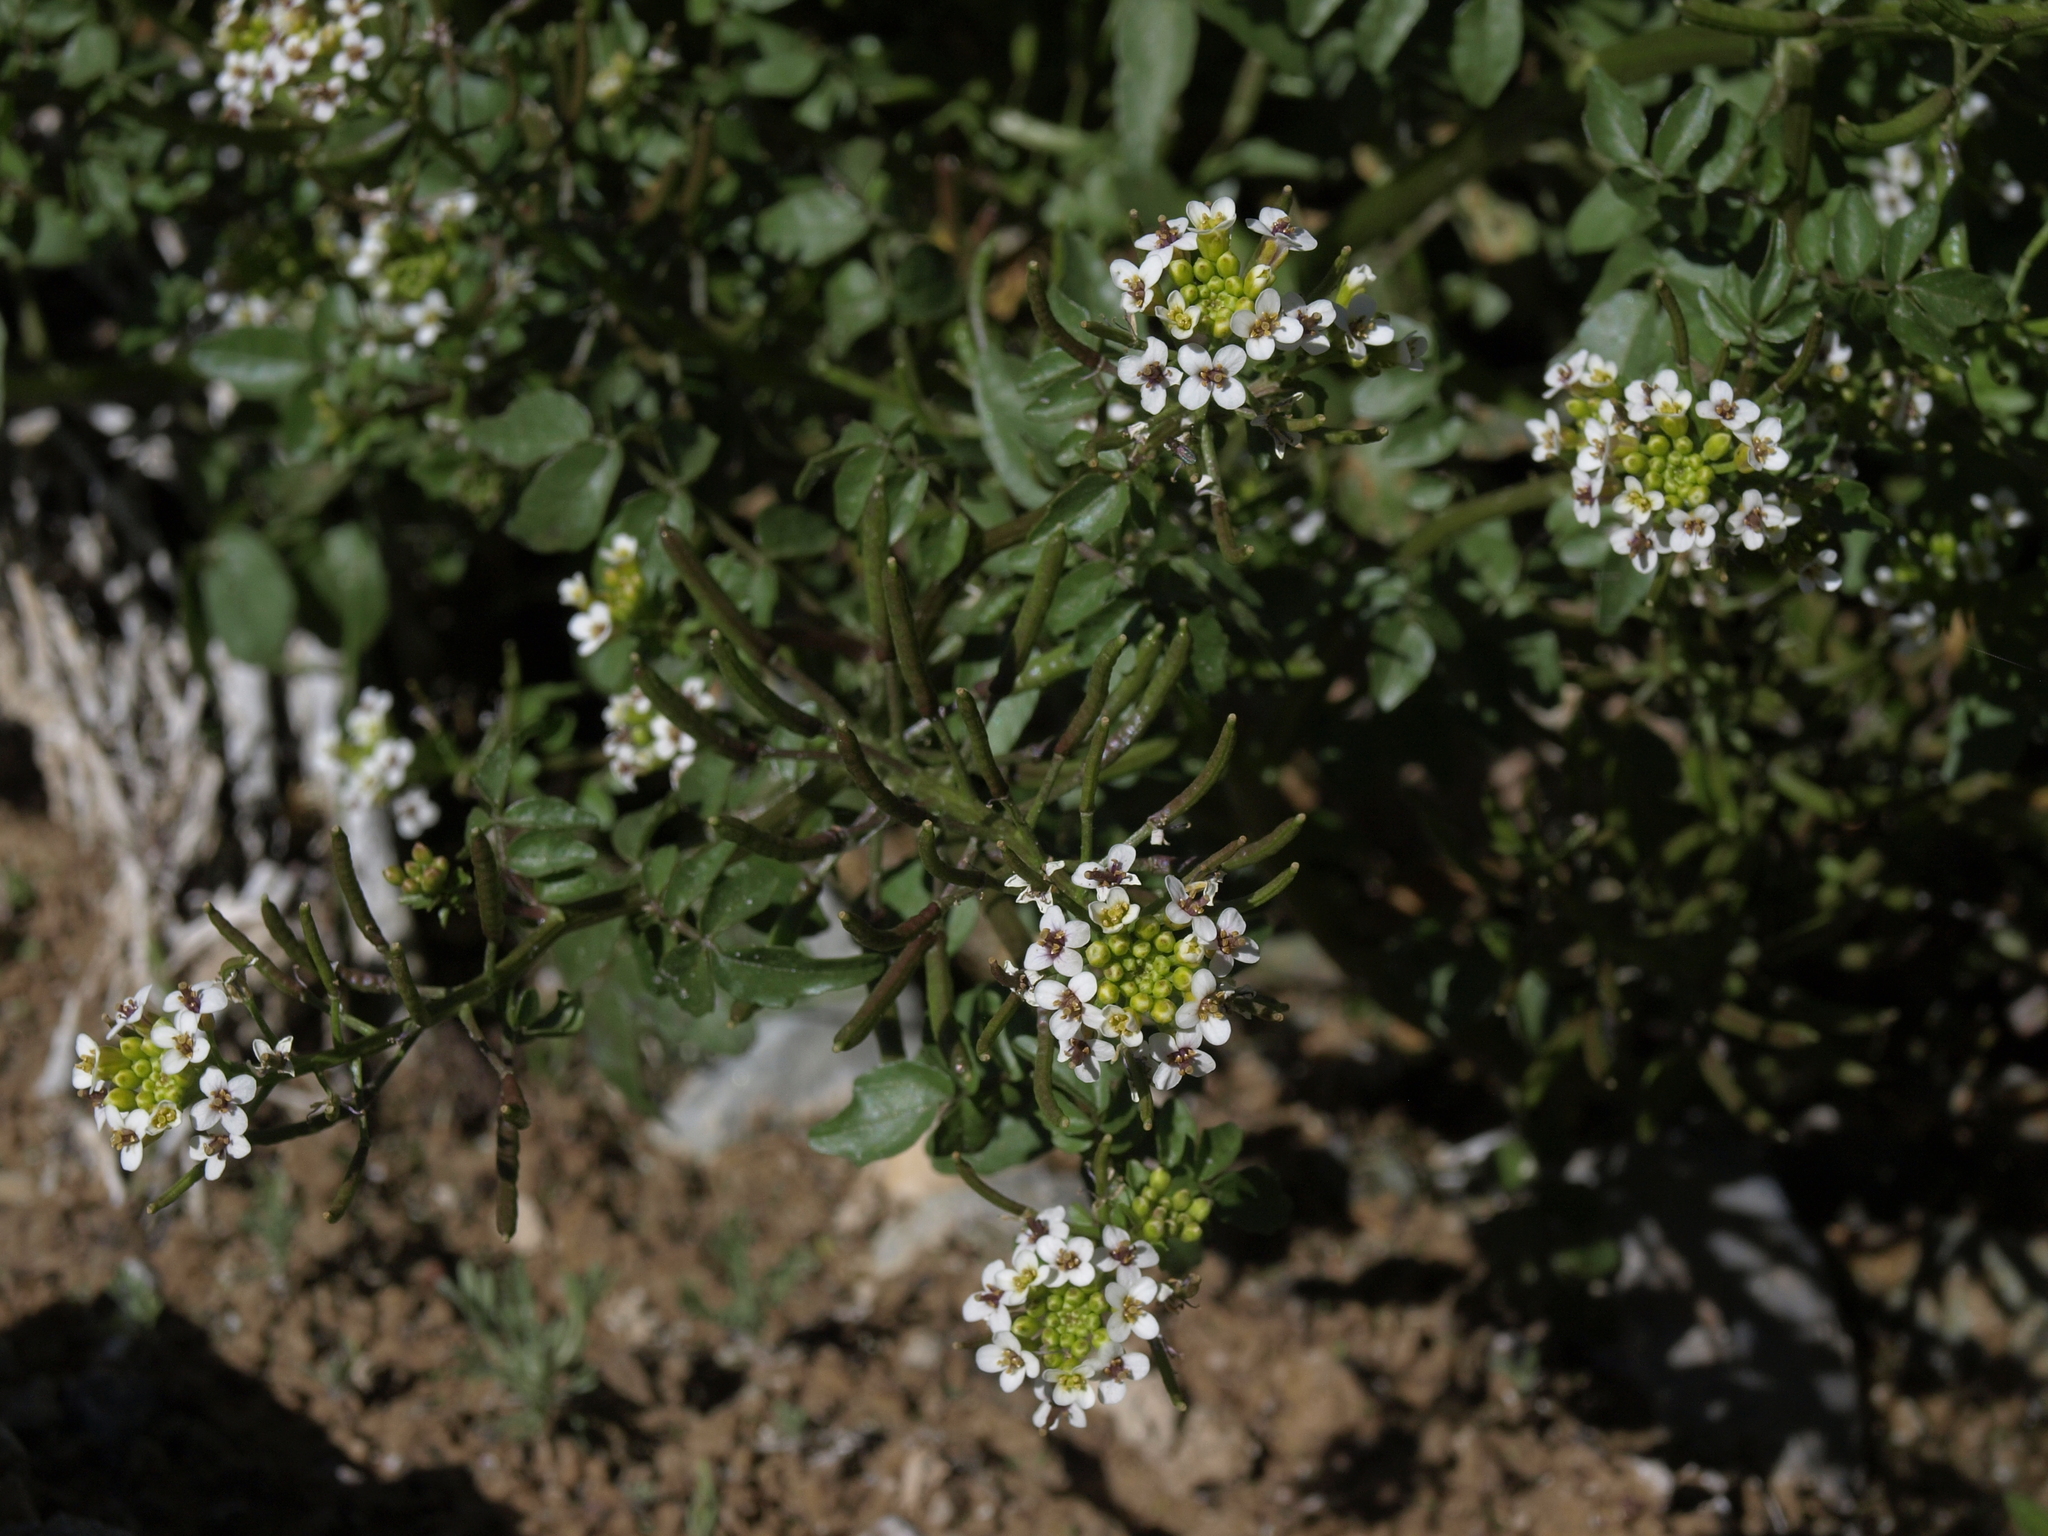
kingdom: Plantae
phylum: Tracheophyta
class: Magnoliopsida
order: Brassicales
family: Brassicaceae
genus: Nasturtium
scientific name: Nasturtium officinale
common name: Watercress
